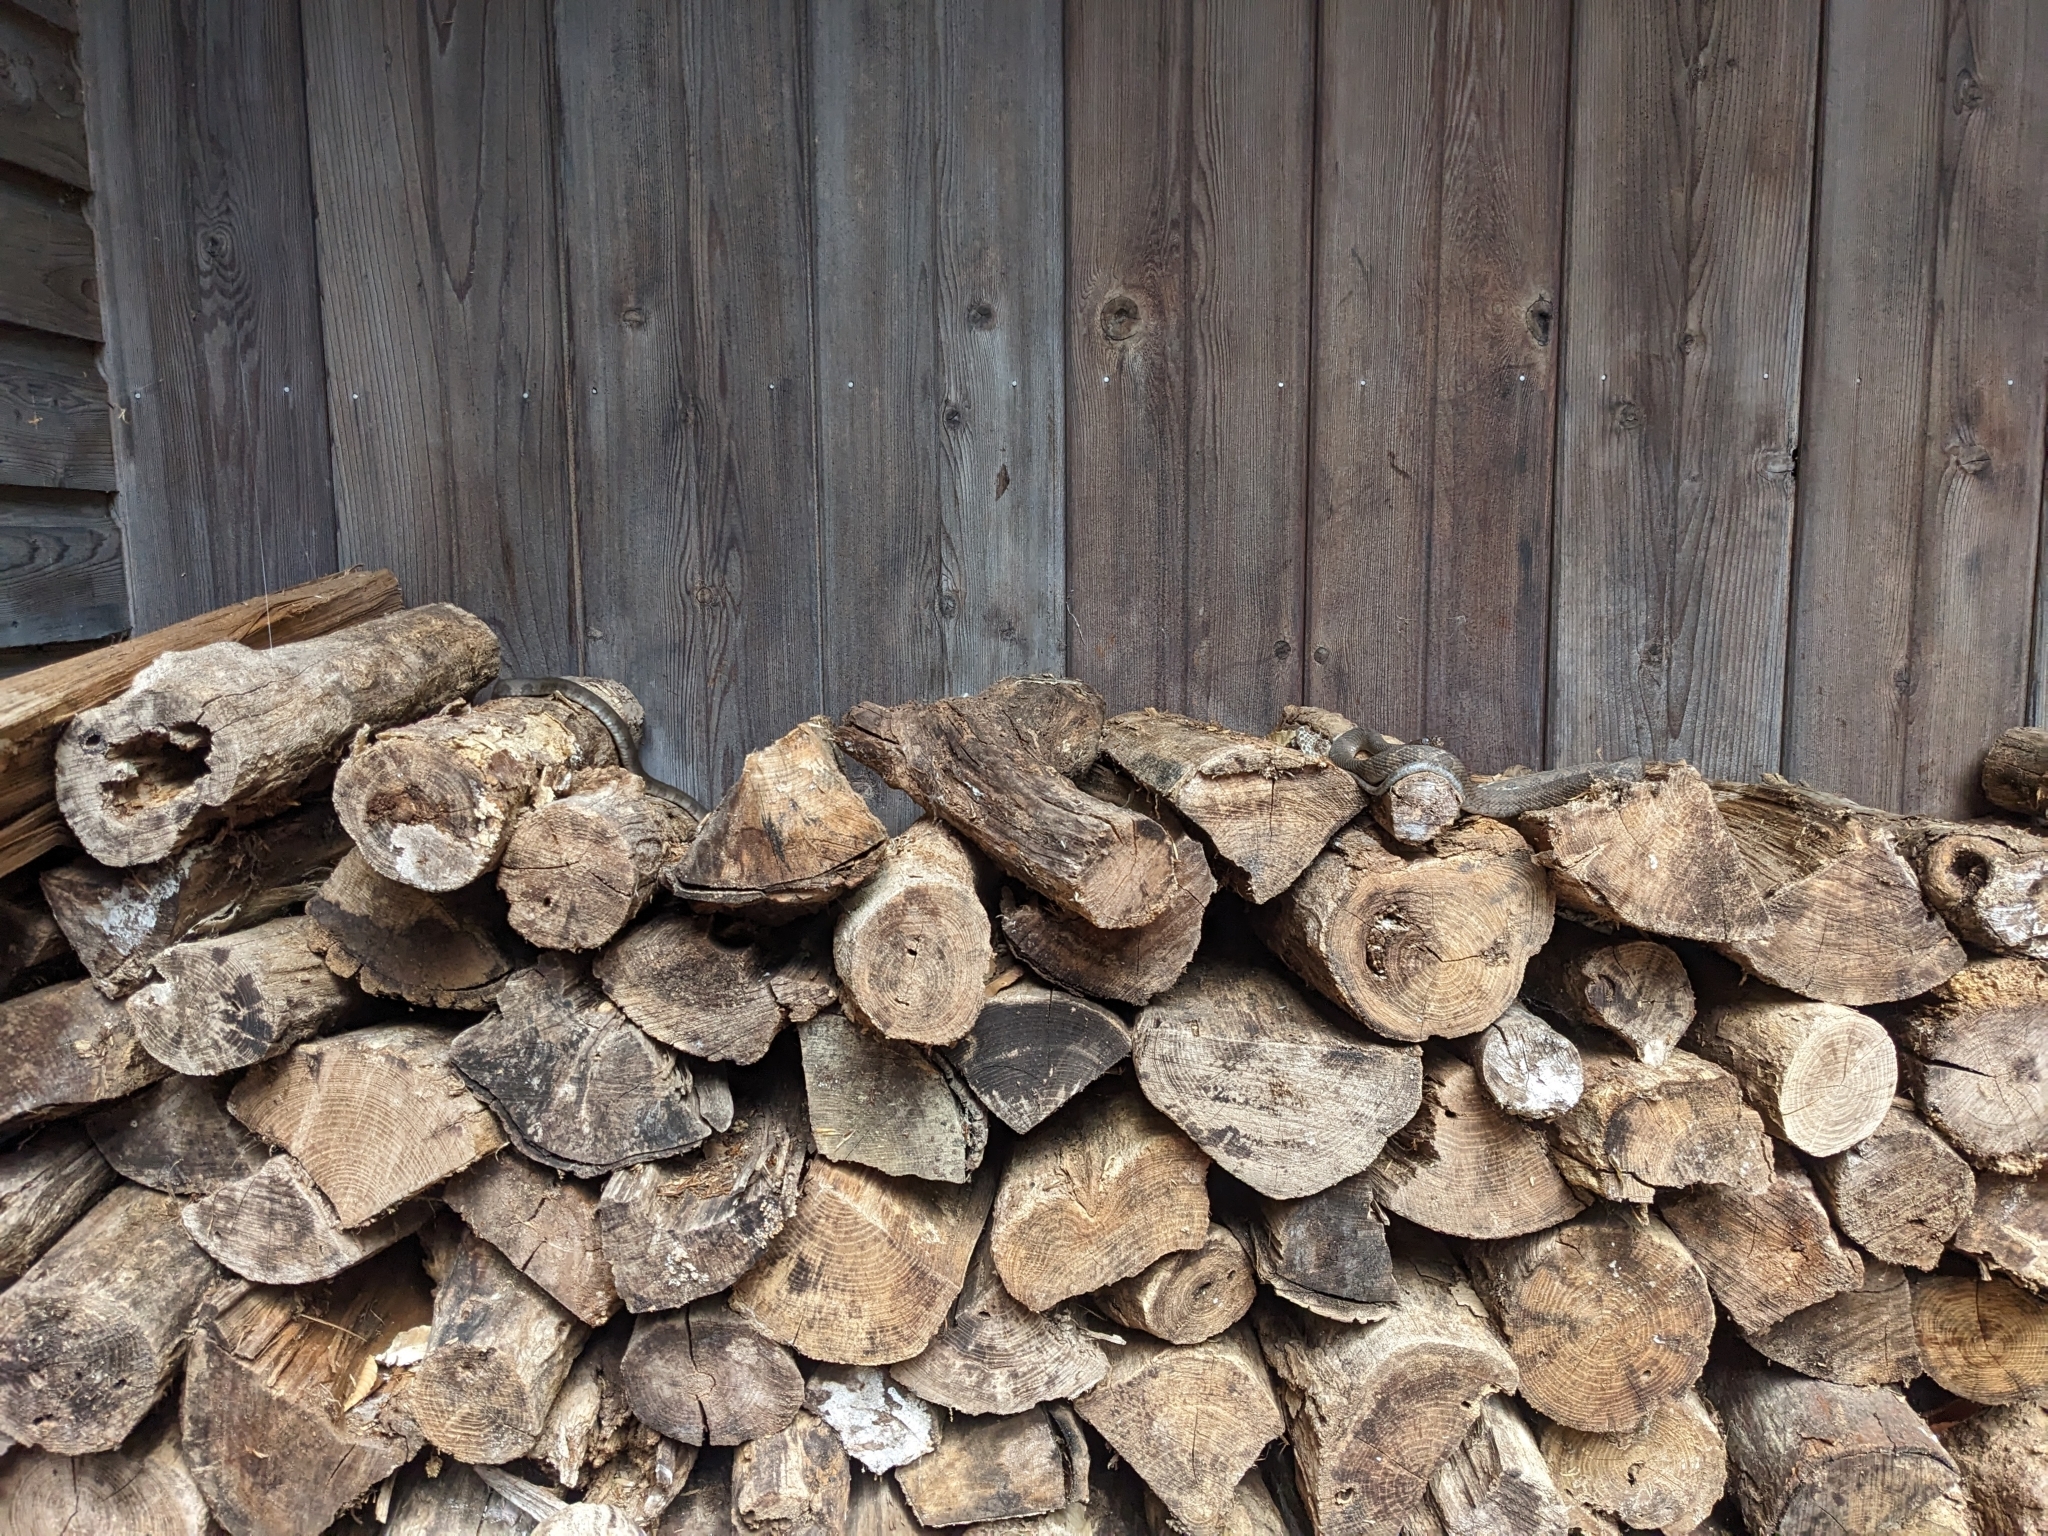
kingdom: Animalia
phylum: Chordata
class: Squamata
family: Colubridae
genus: Nerodia
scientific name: Nerodia sipedon
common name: Northern water snake
